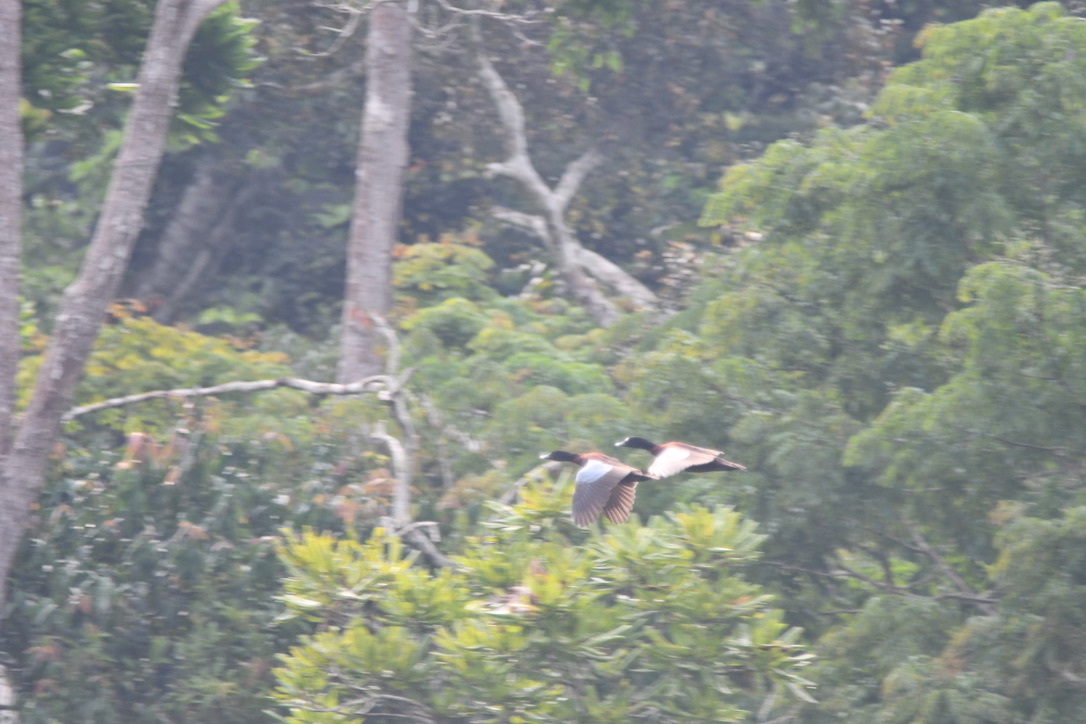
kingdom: Animalia
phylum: Chordata
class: Aves
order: Anseriformes
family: Anatidae
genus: Pteronetta
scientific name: Pteronetta hartlaubii
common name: Hartlaub's duck
